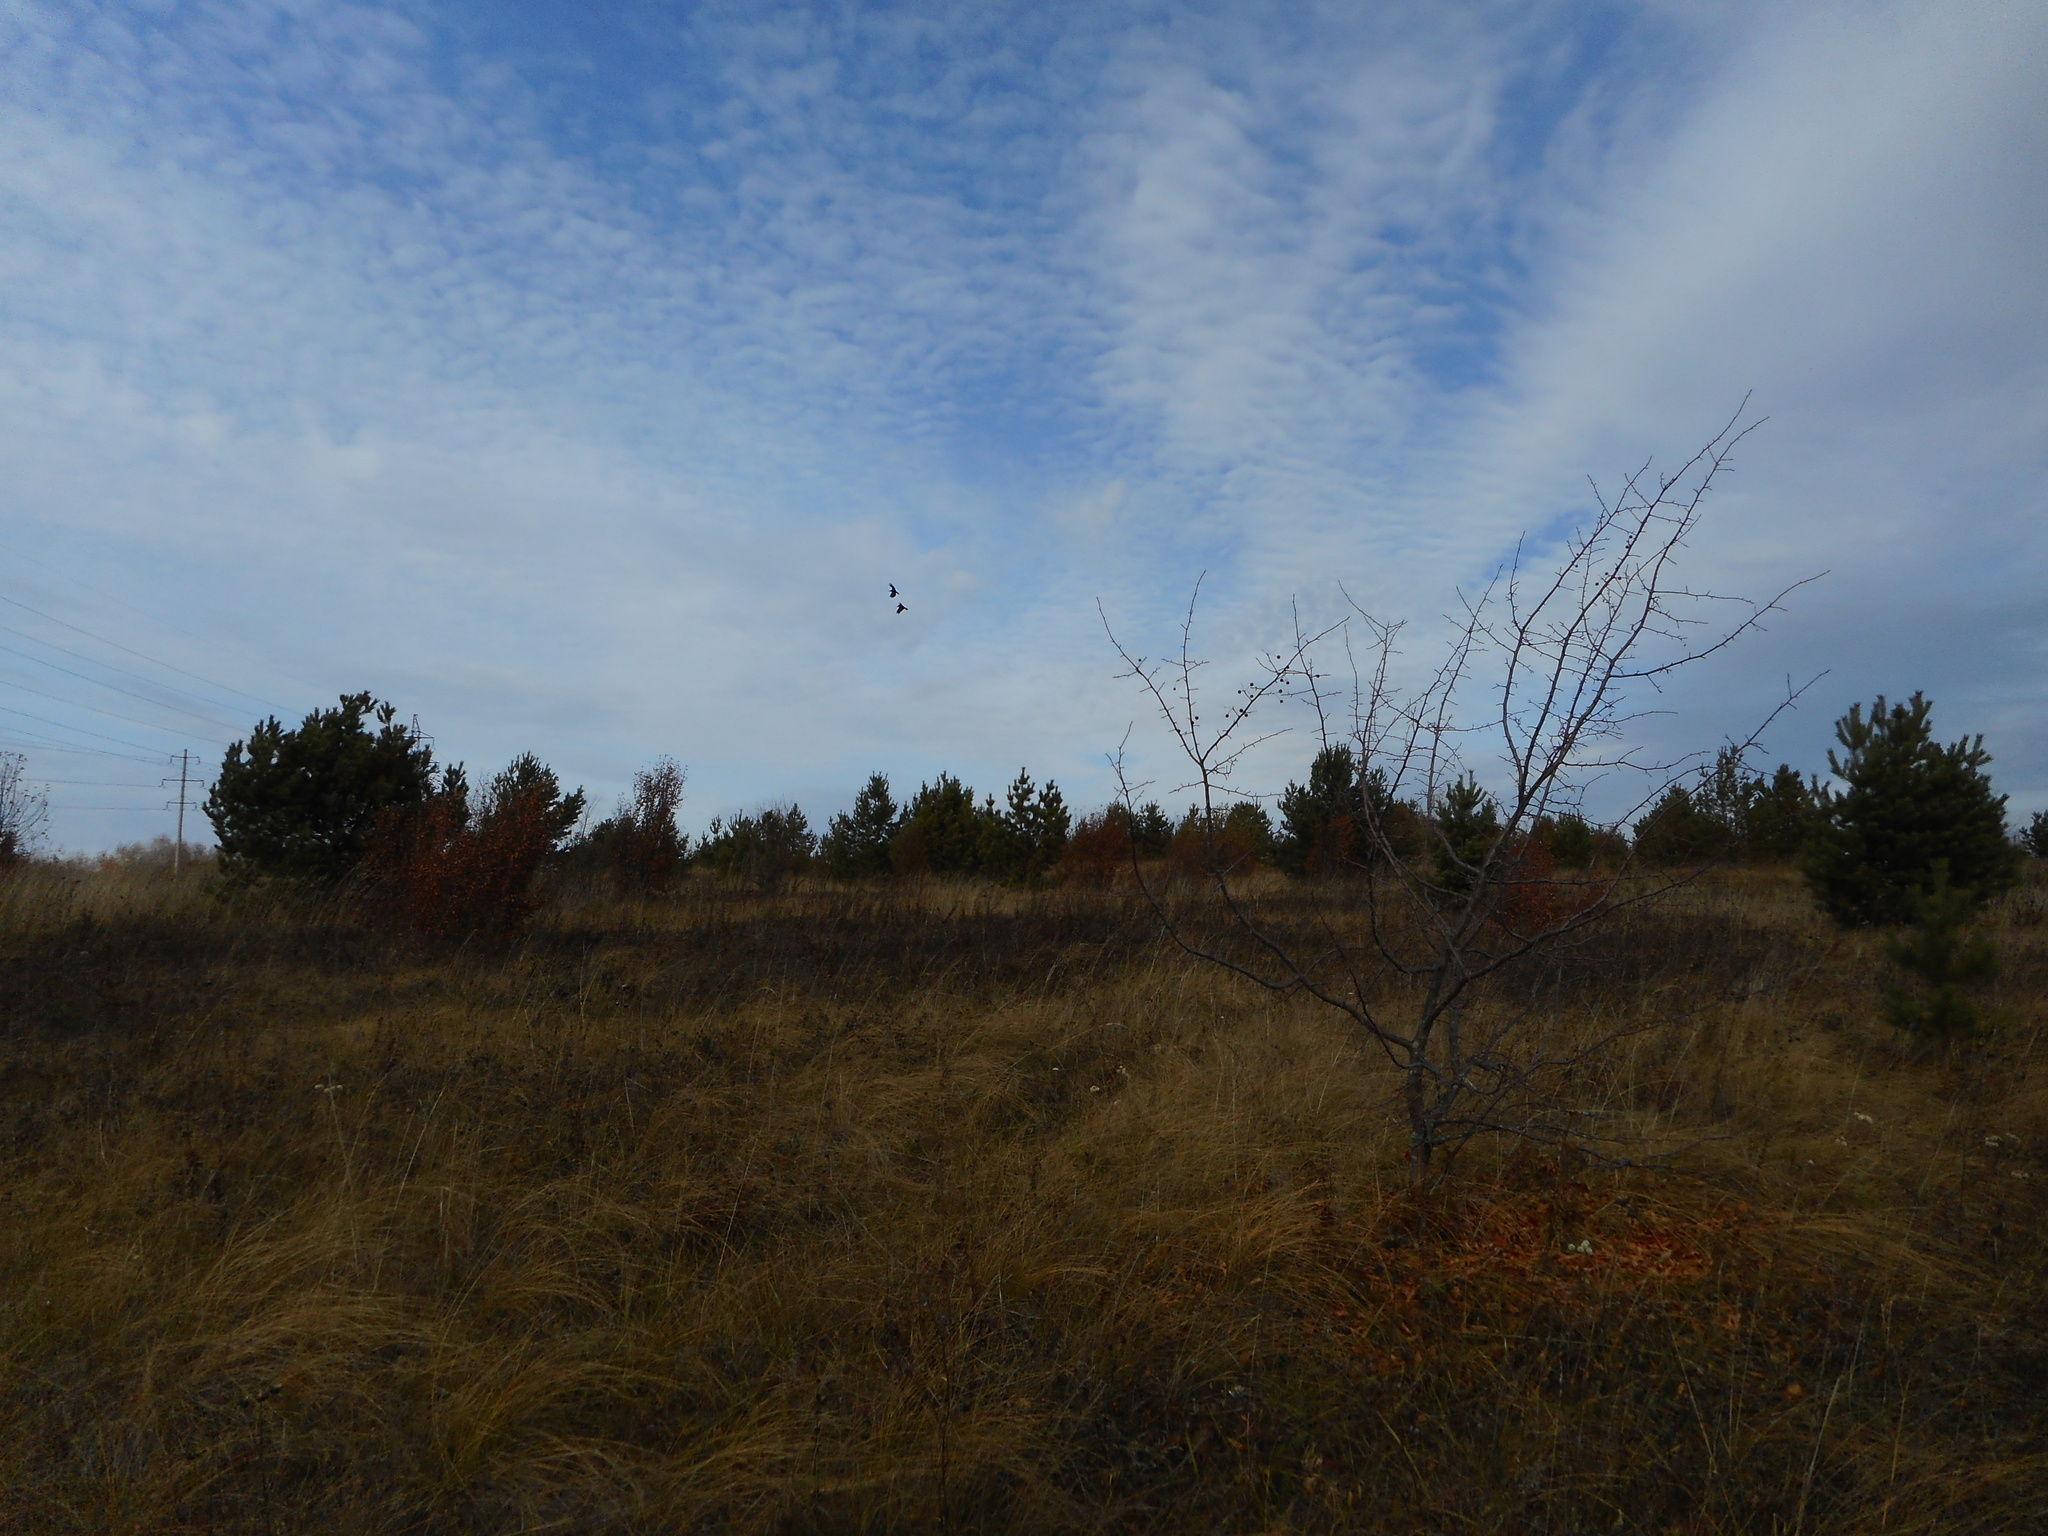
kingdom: Animalia
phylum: Chordata
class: Aves
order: Passeriformes
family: Corvidae
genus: Corvus
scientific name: Corvus corax
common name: Common raven
